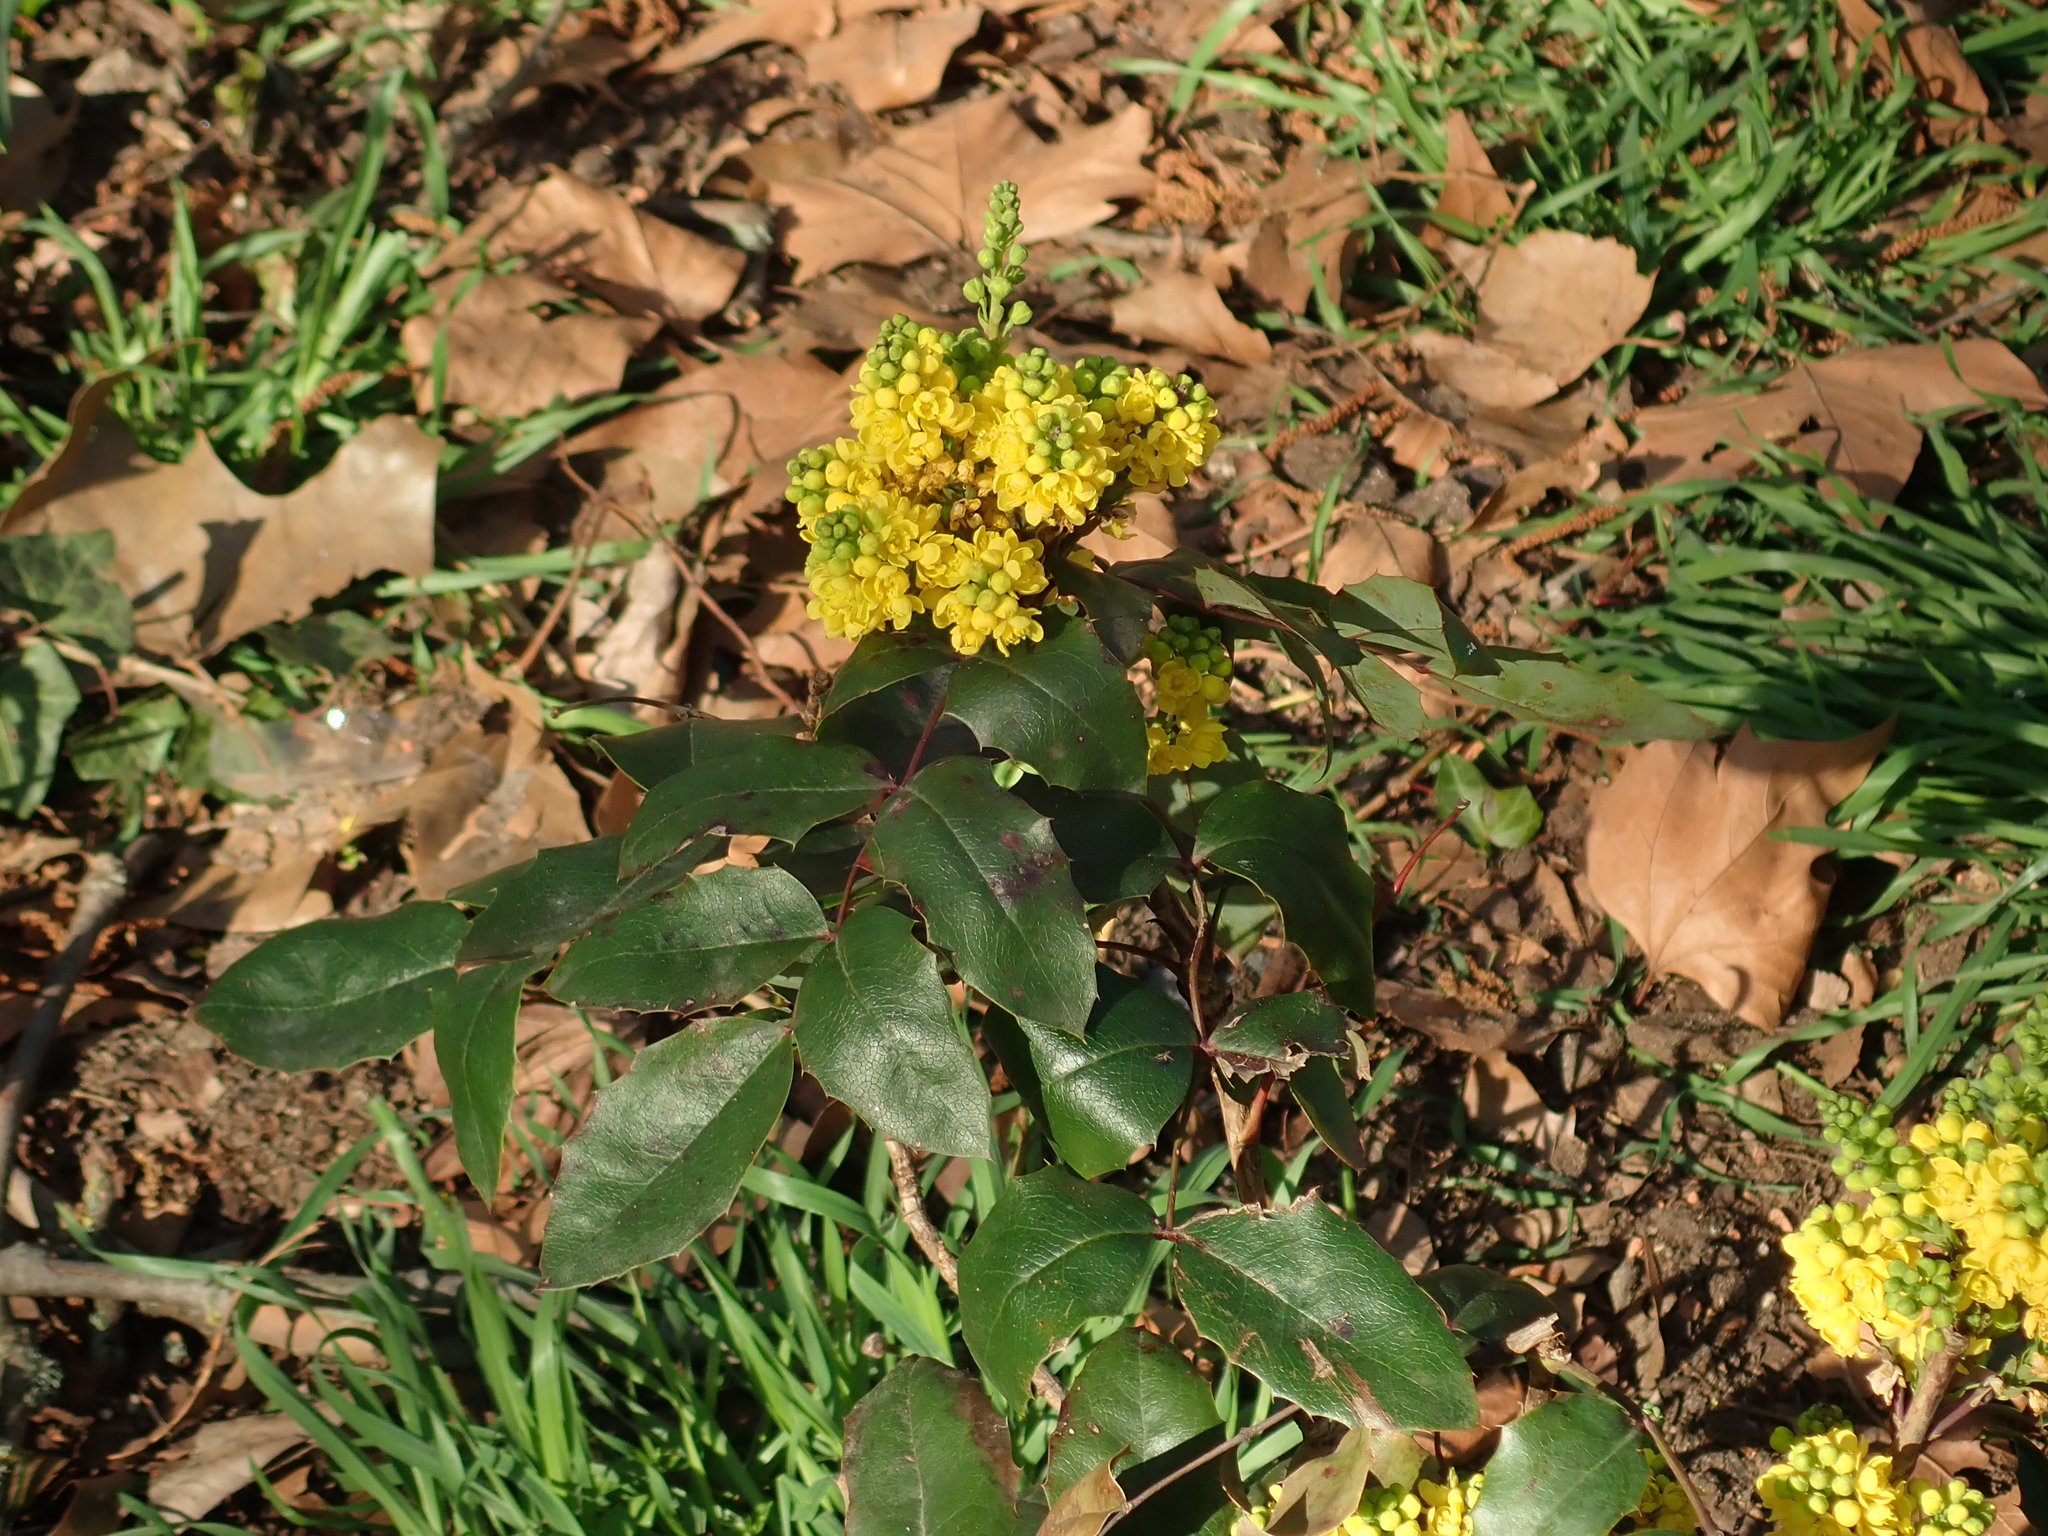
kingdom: Plantae
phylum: Tracheophyta
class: Magnoliopsida
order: Ranunculales
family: Berberidaceae
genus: Mahonia
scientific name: Mahonia aquifolium
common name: Oregon-grape
